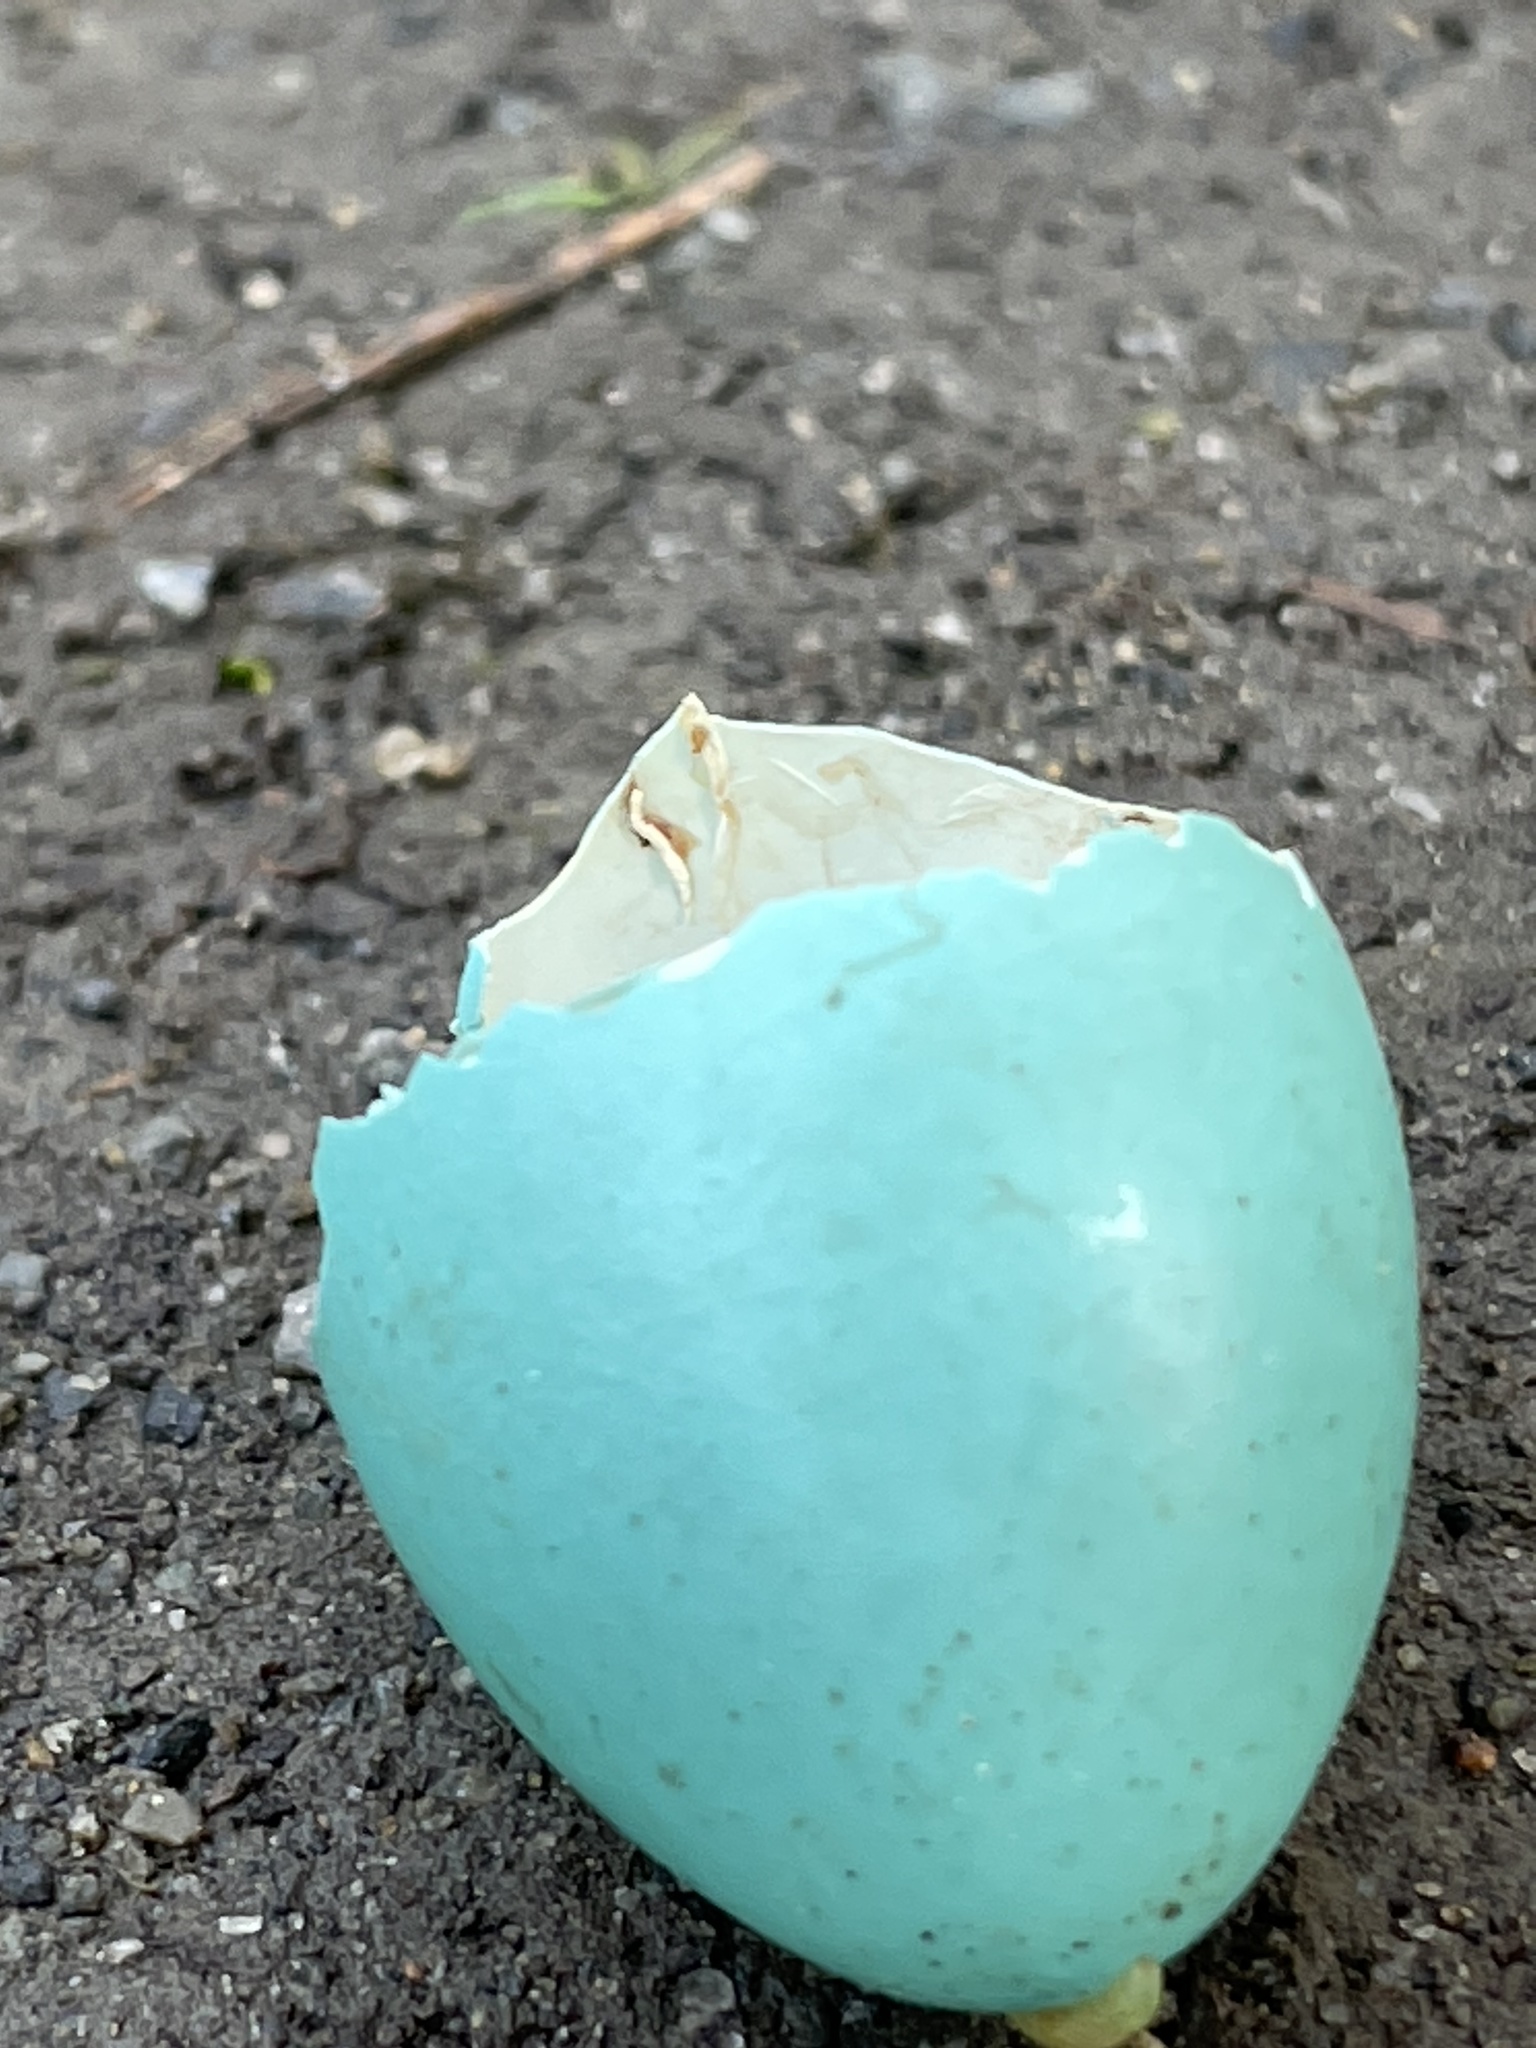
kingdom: Animalia
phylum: Chordata
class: Aves
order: Passeriformes
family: Turdidae
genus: Turdus
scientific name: Turdus migratorius
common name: American robin
